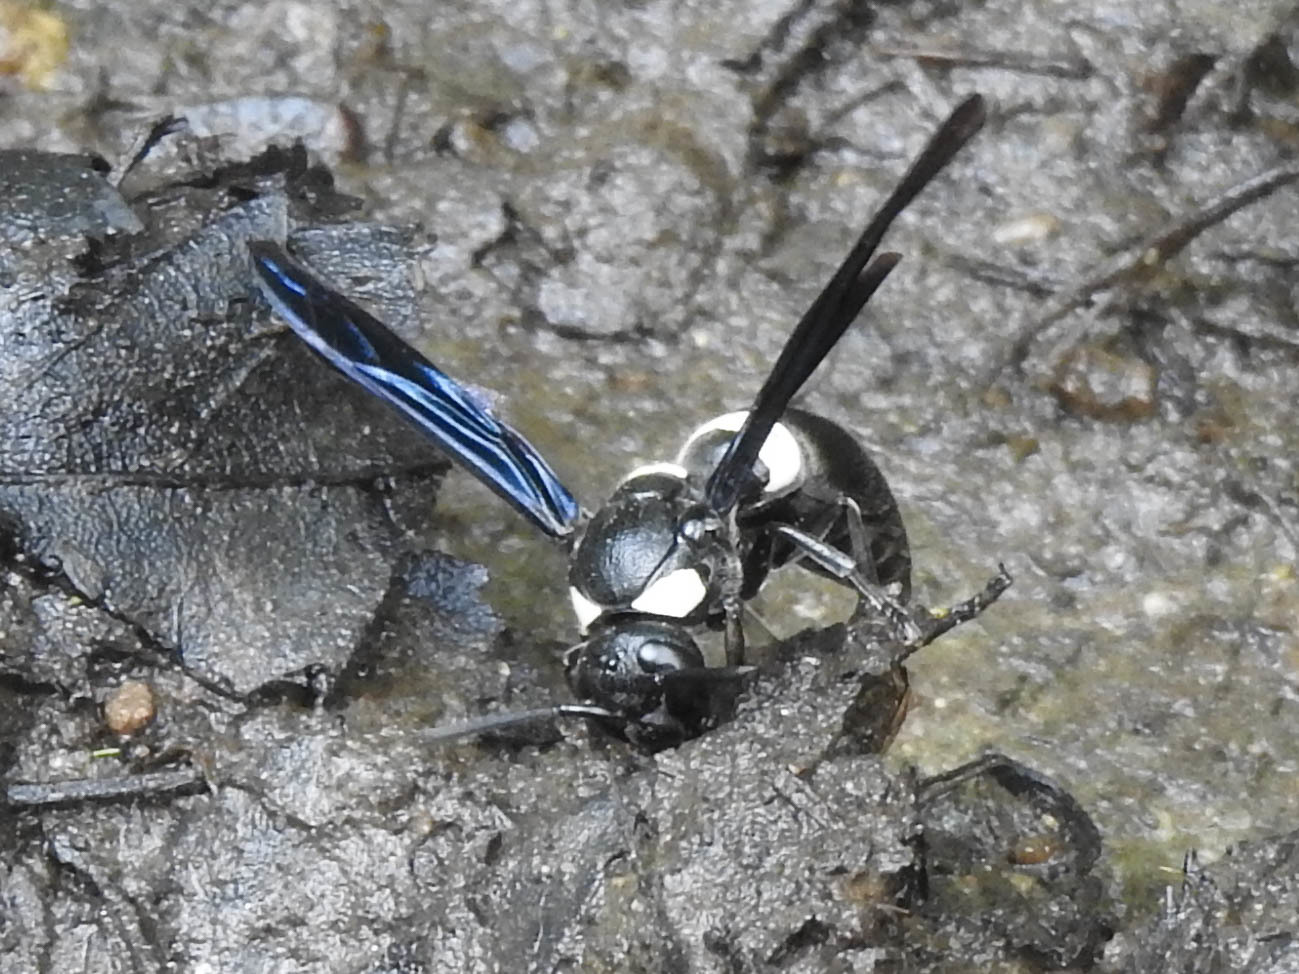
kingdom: Animalia
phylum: Arthropoda
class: Insecta
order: Hymenoptera
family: Eumenidae
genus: Monobia
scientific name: Monobia quadridens
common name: Four-toothed mason wasp
